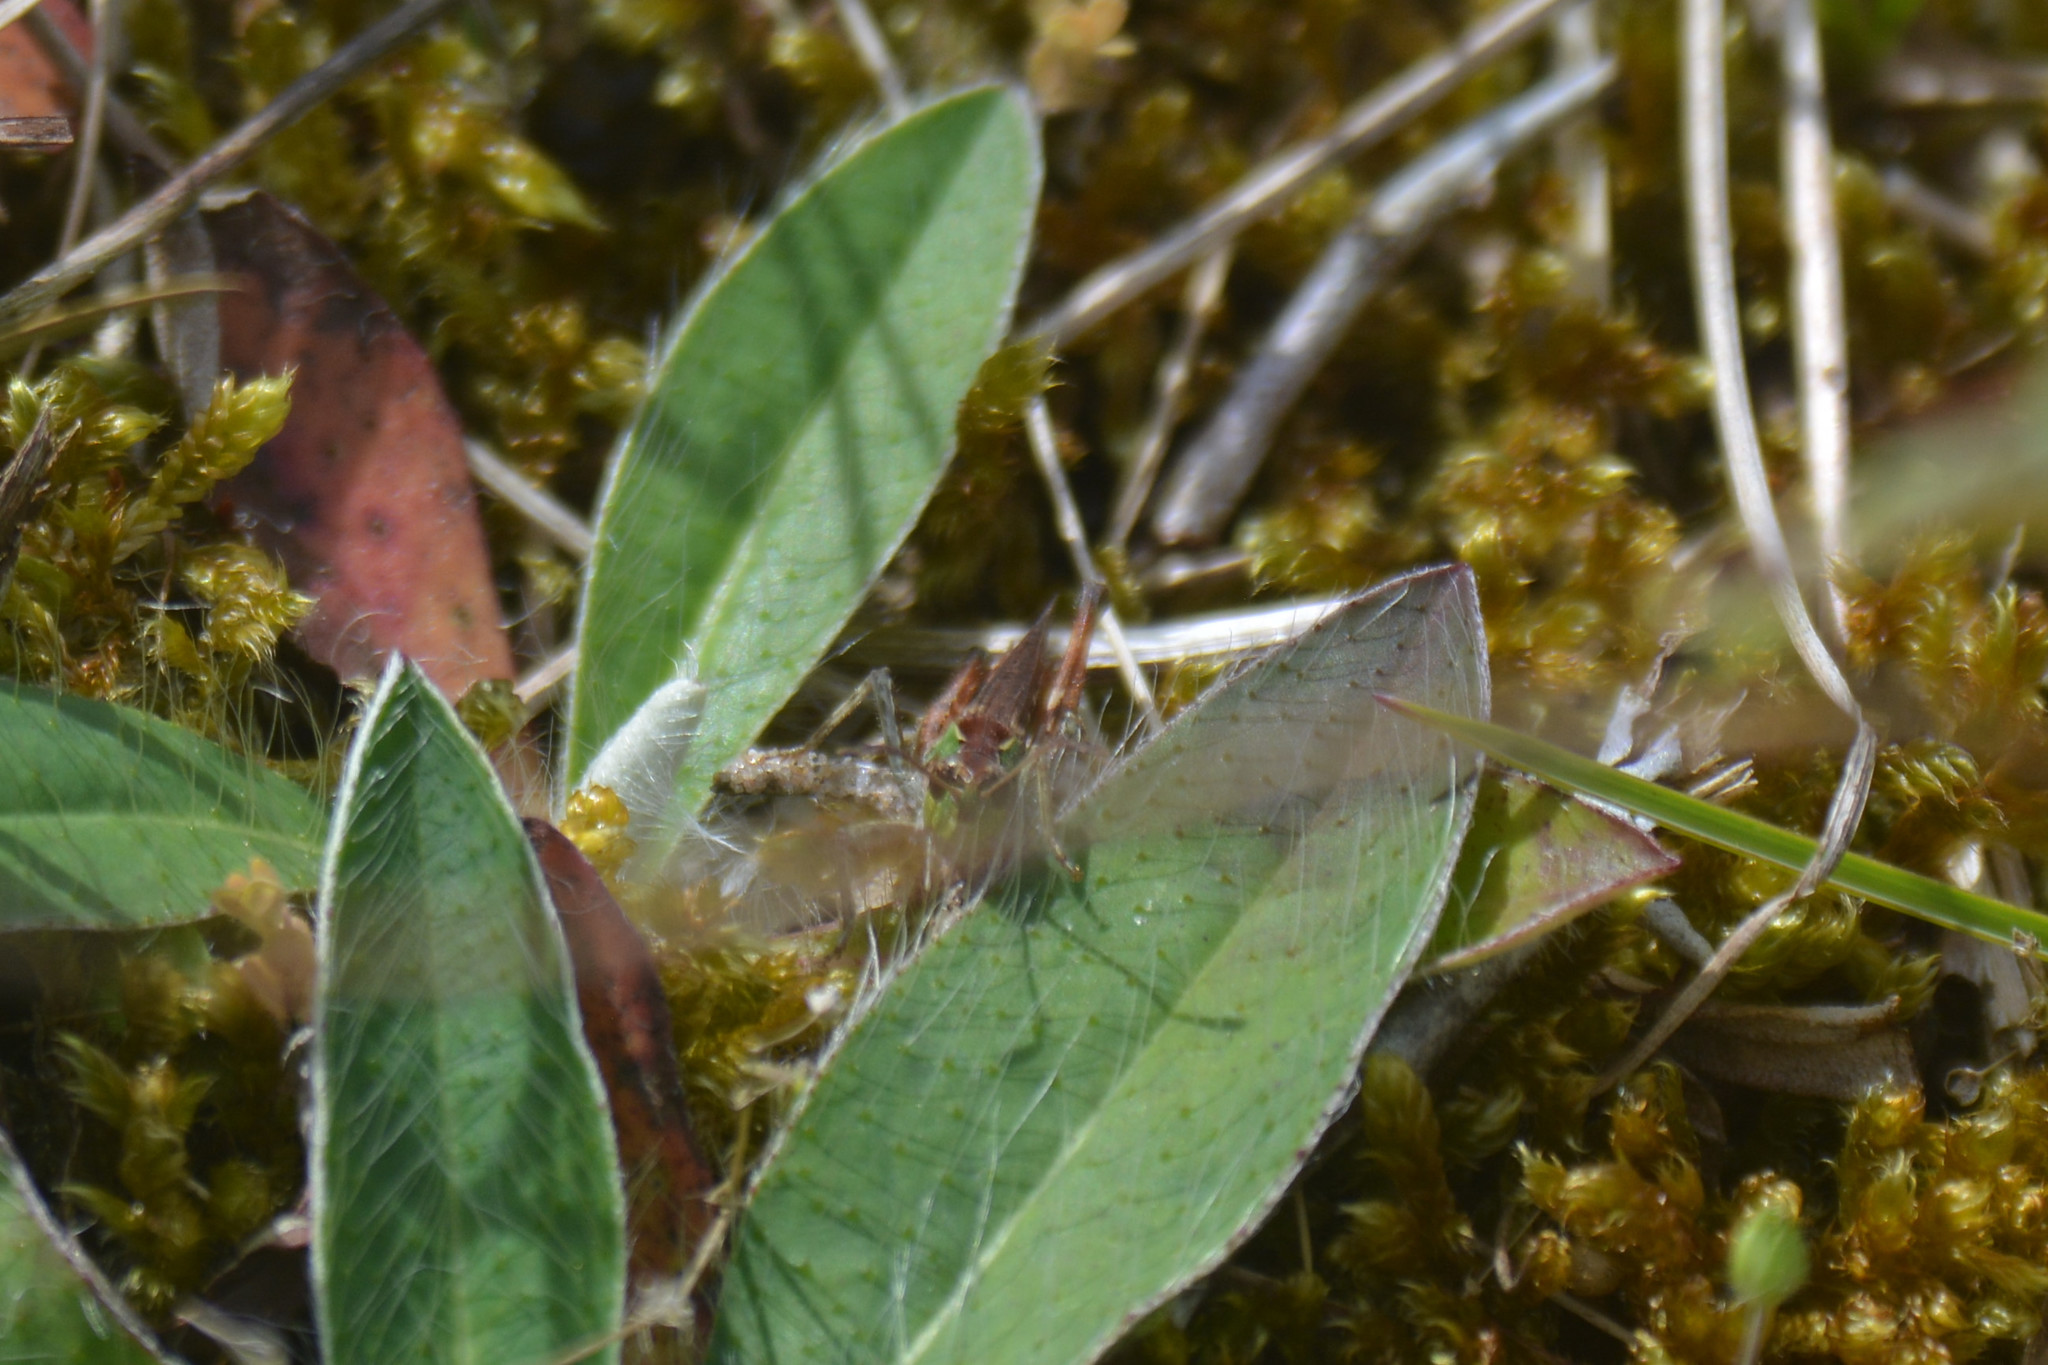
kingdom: Animalia
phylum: Arthropoda
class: Insecta
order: Orthoptera
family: Acrididae
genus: Myrmeleotettix
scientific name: Myrmeleotettix maculatus
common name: Mottled grasshopper
